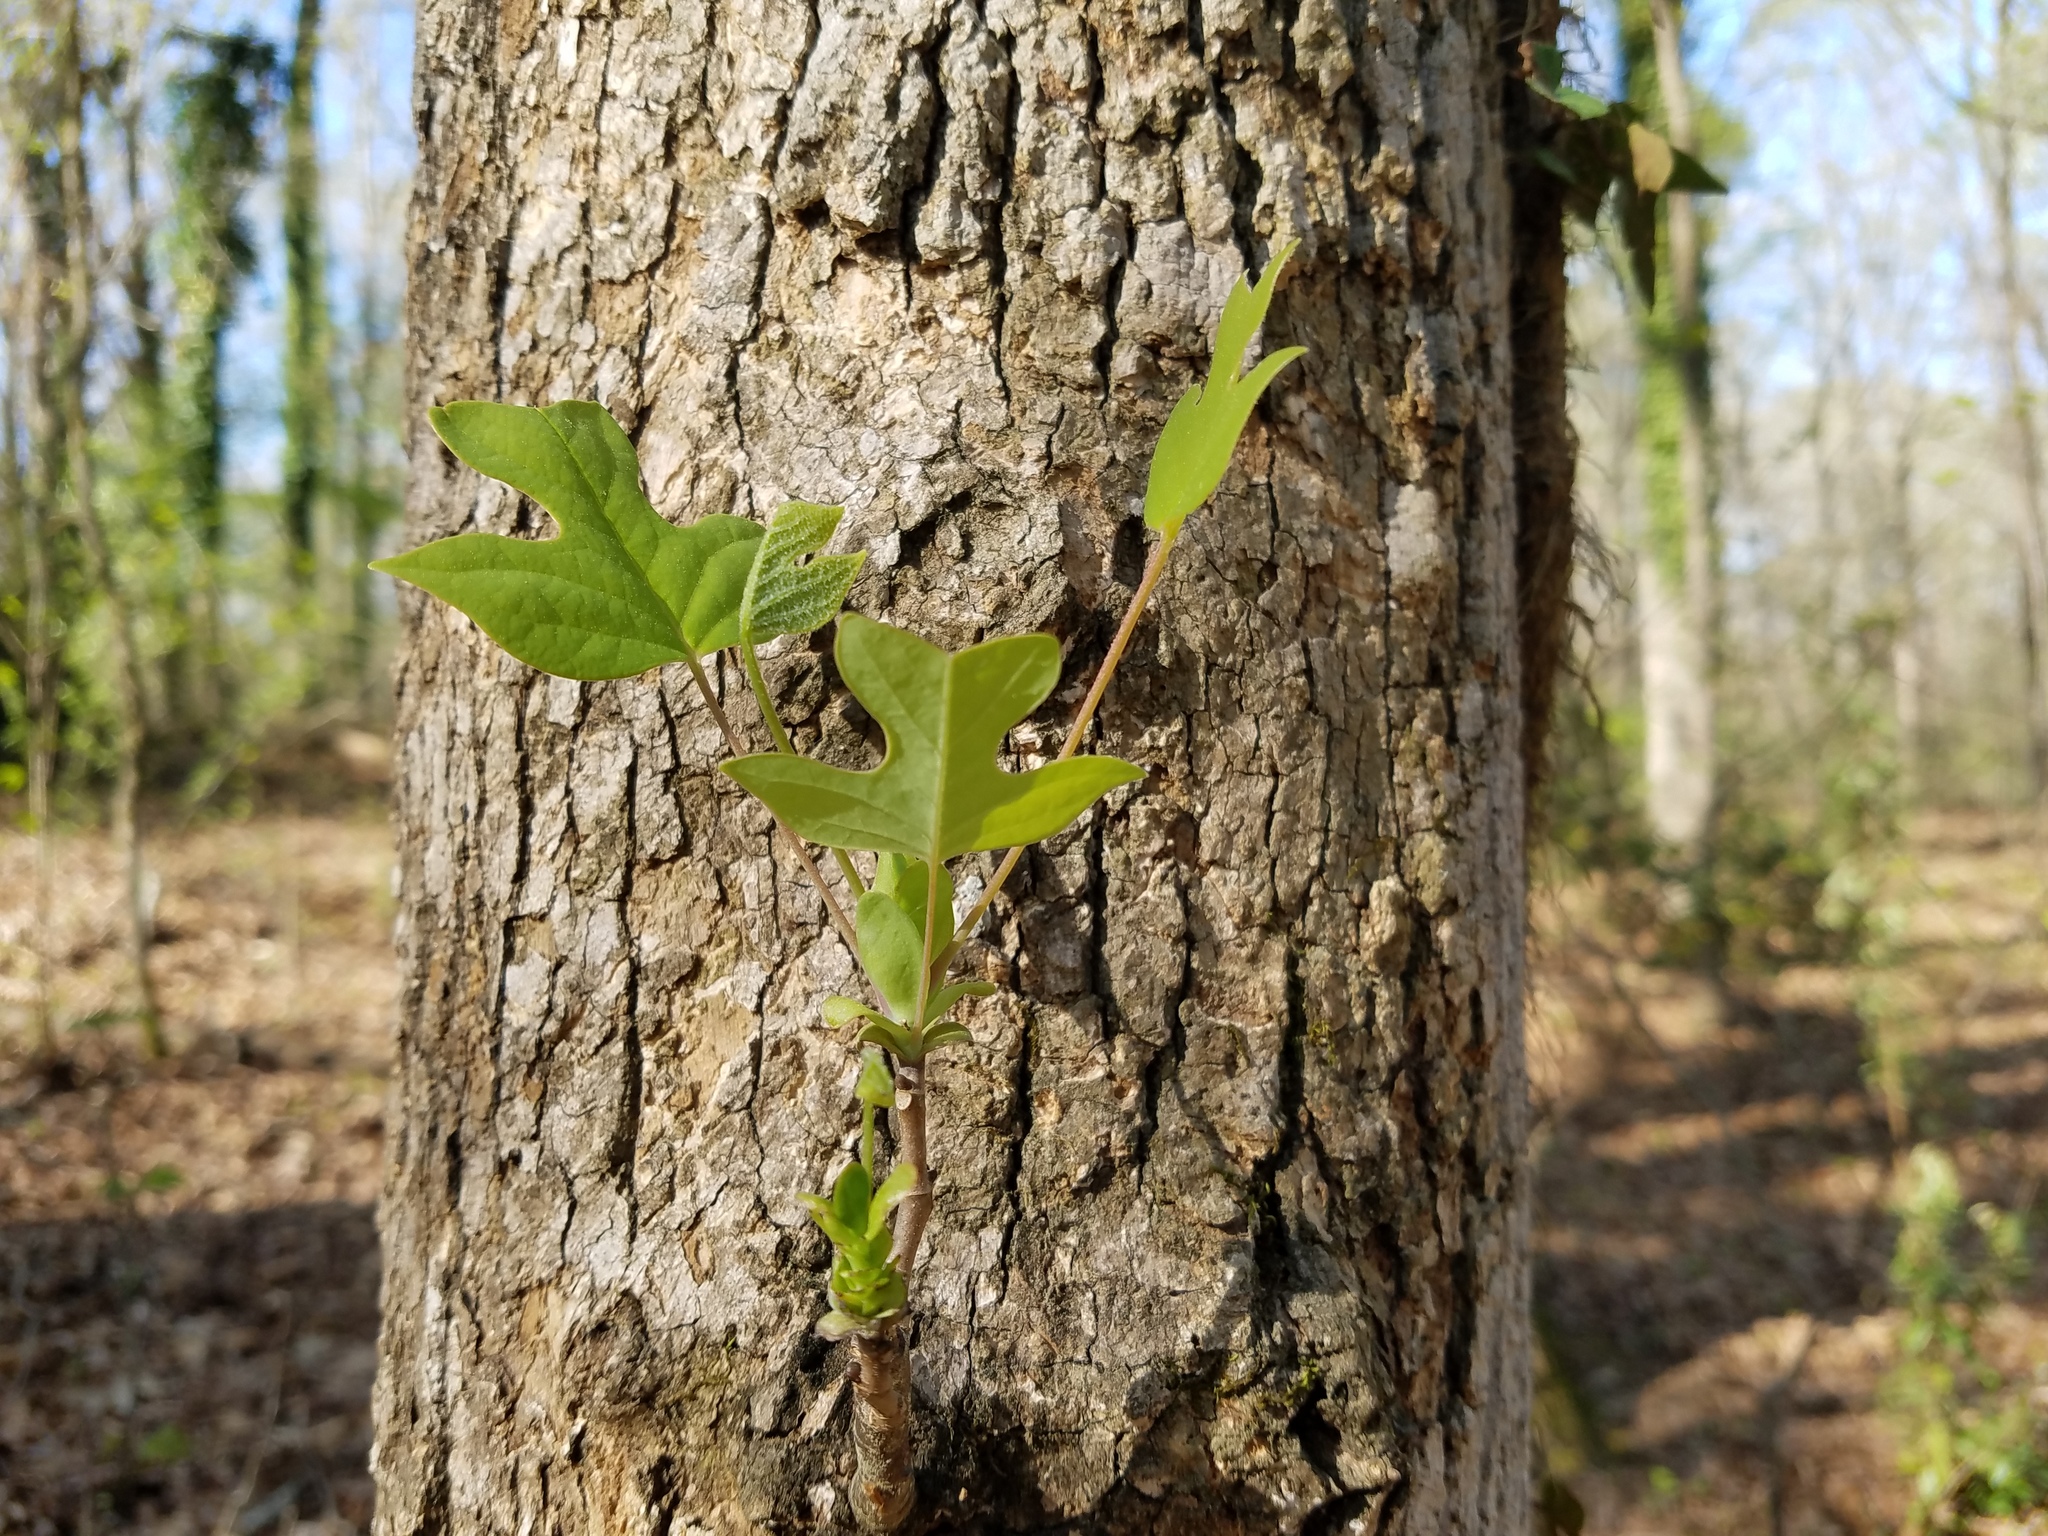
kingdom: Plantae
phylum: Tracheophyta
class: Magnoliopsida
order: Magnoliales
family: Magnoliaceae
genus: Liriodendron
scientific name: Liriodendron tulipifera
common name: Tulip tree
